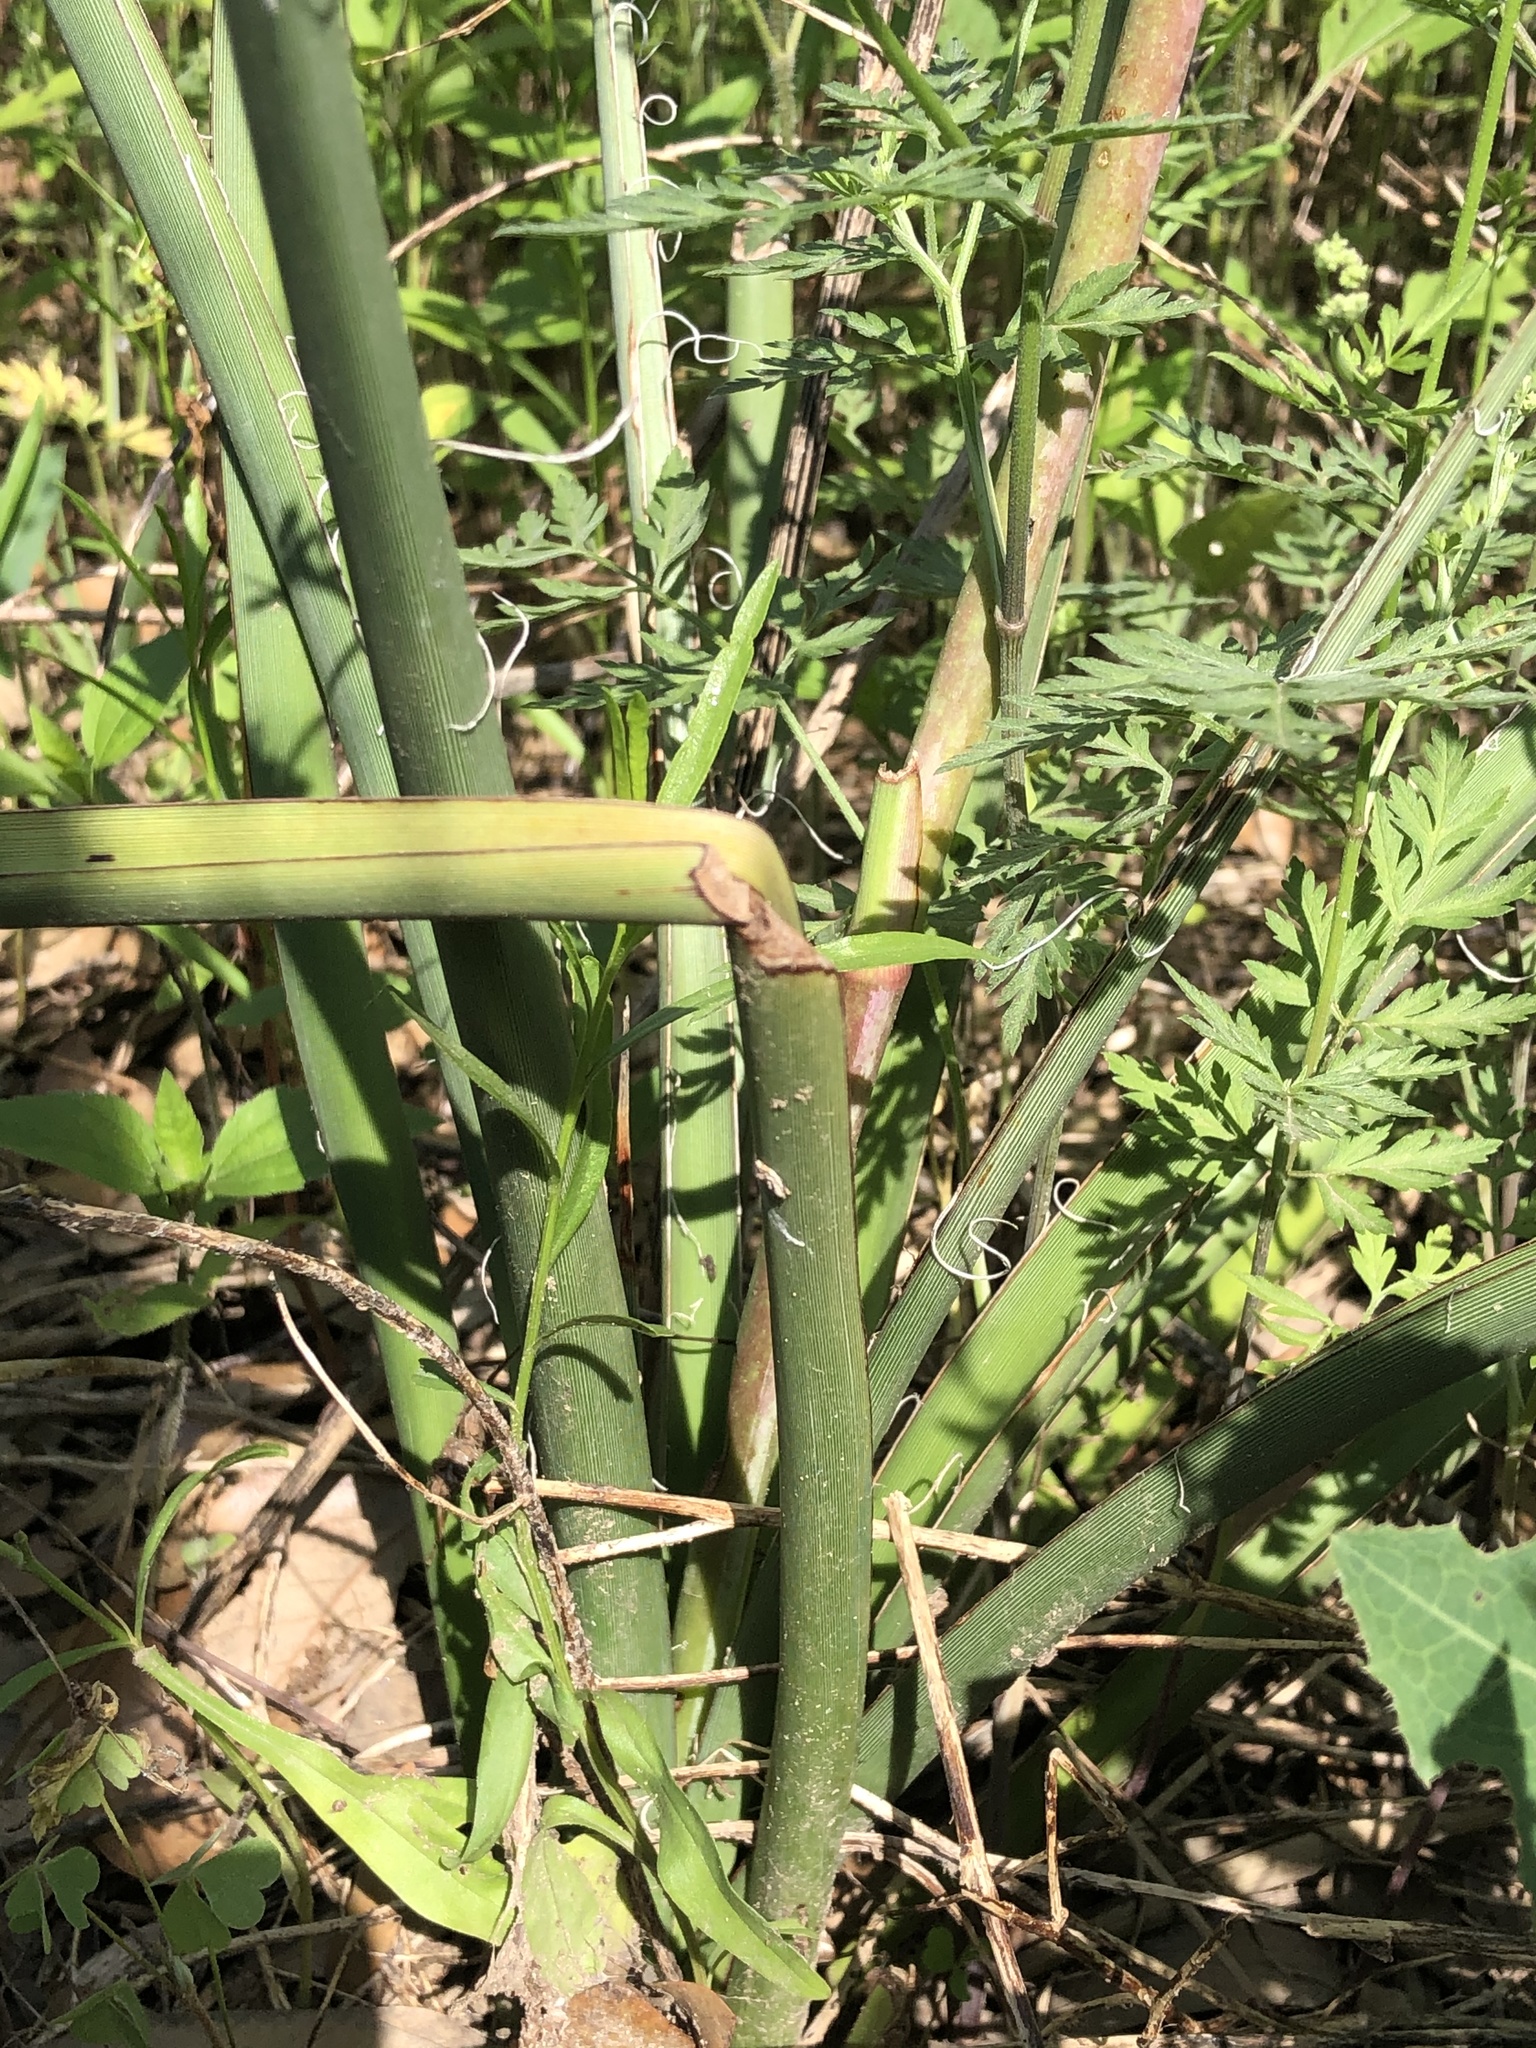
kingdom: Plantae
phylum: Tracheophyta
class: Liliopsida
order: Asparagales
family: Asparagaceae
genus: Hesperaloe
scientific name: Hesperaloe parviflora
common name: Red hesperaloe
